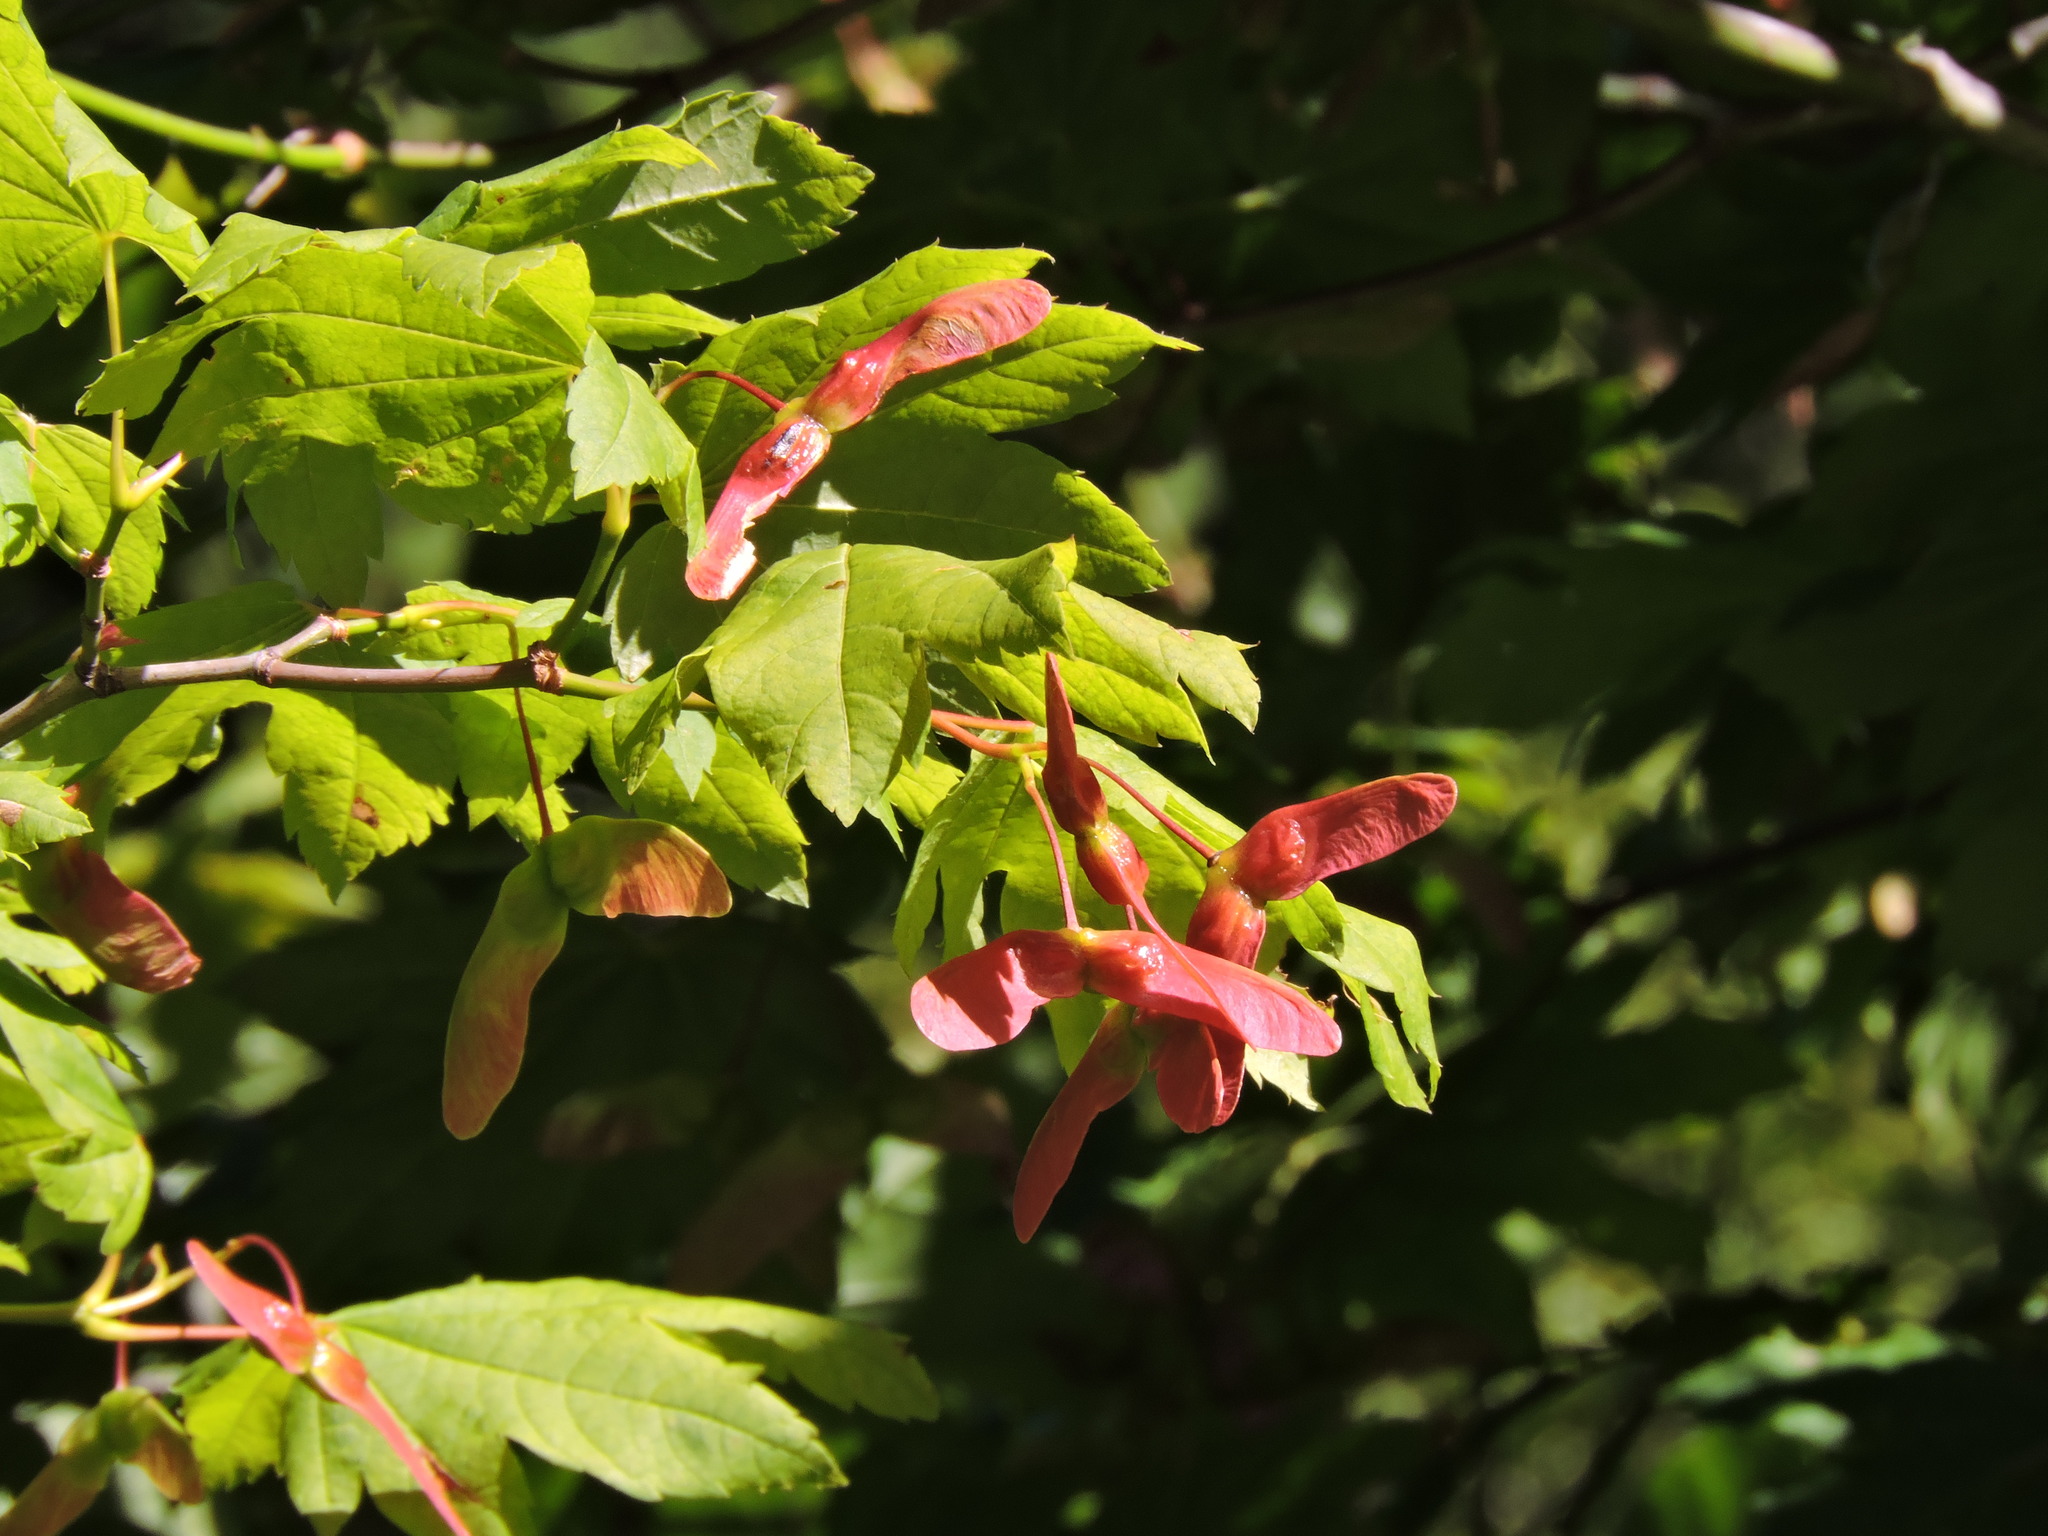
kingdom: Plantae
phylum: Tracheophyta
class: Magnoliopsida
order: Sapindales
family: Sapindaceae
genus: Acer
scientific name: Acer circinatum
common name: Vine maple
